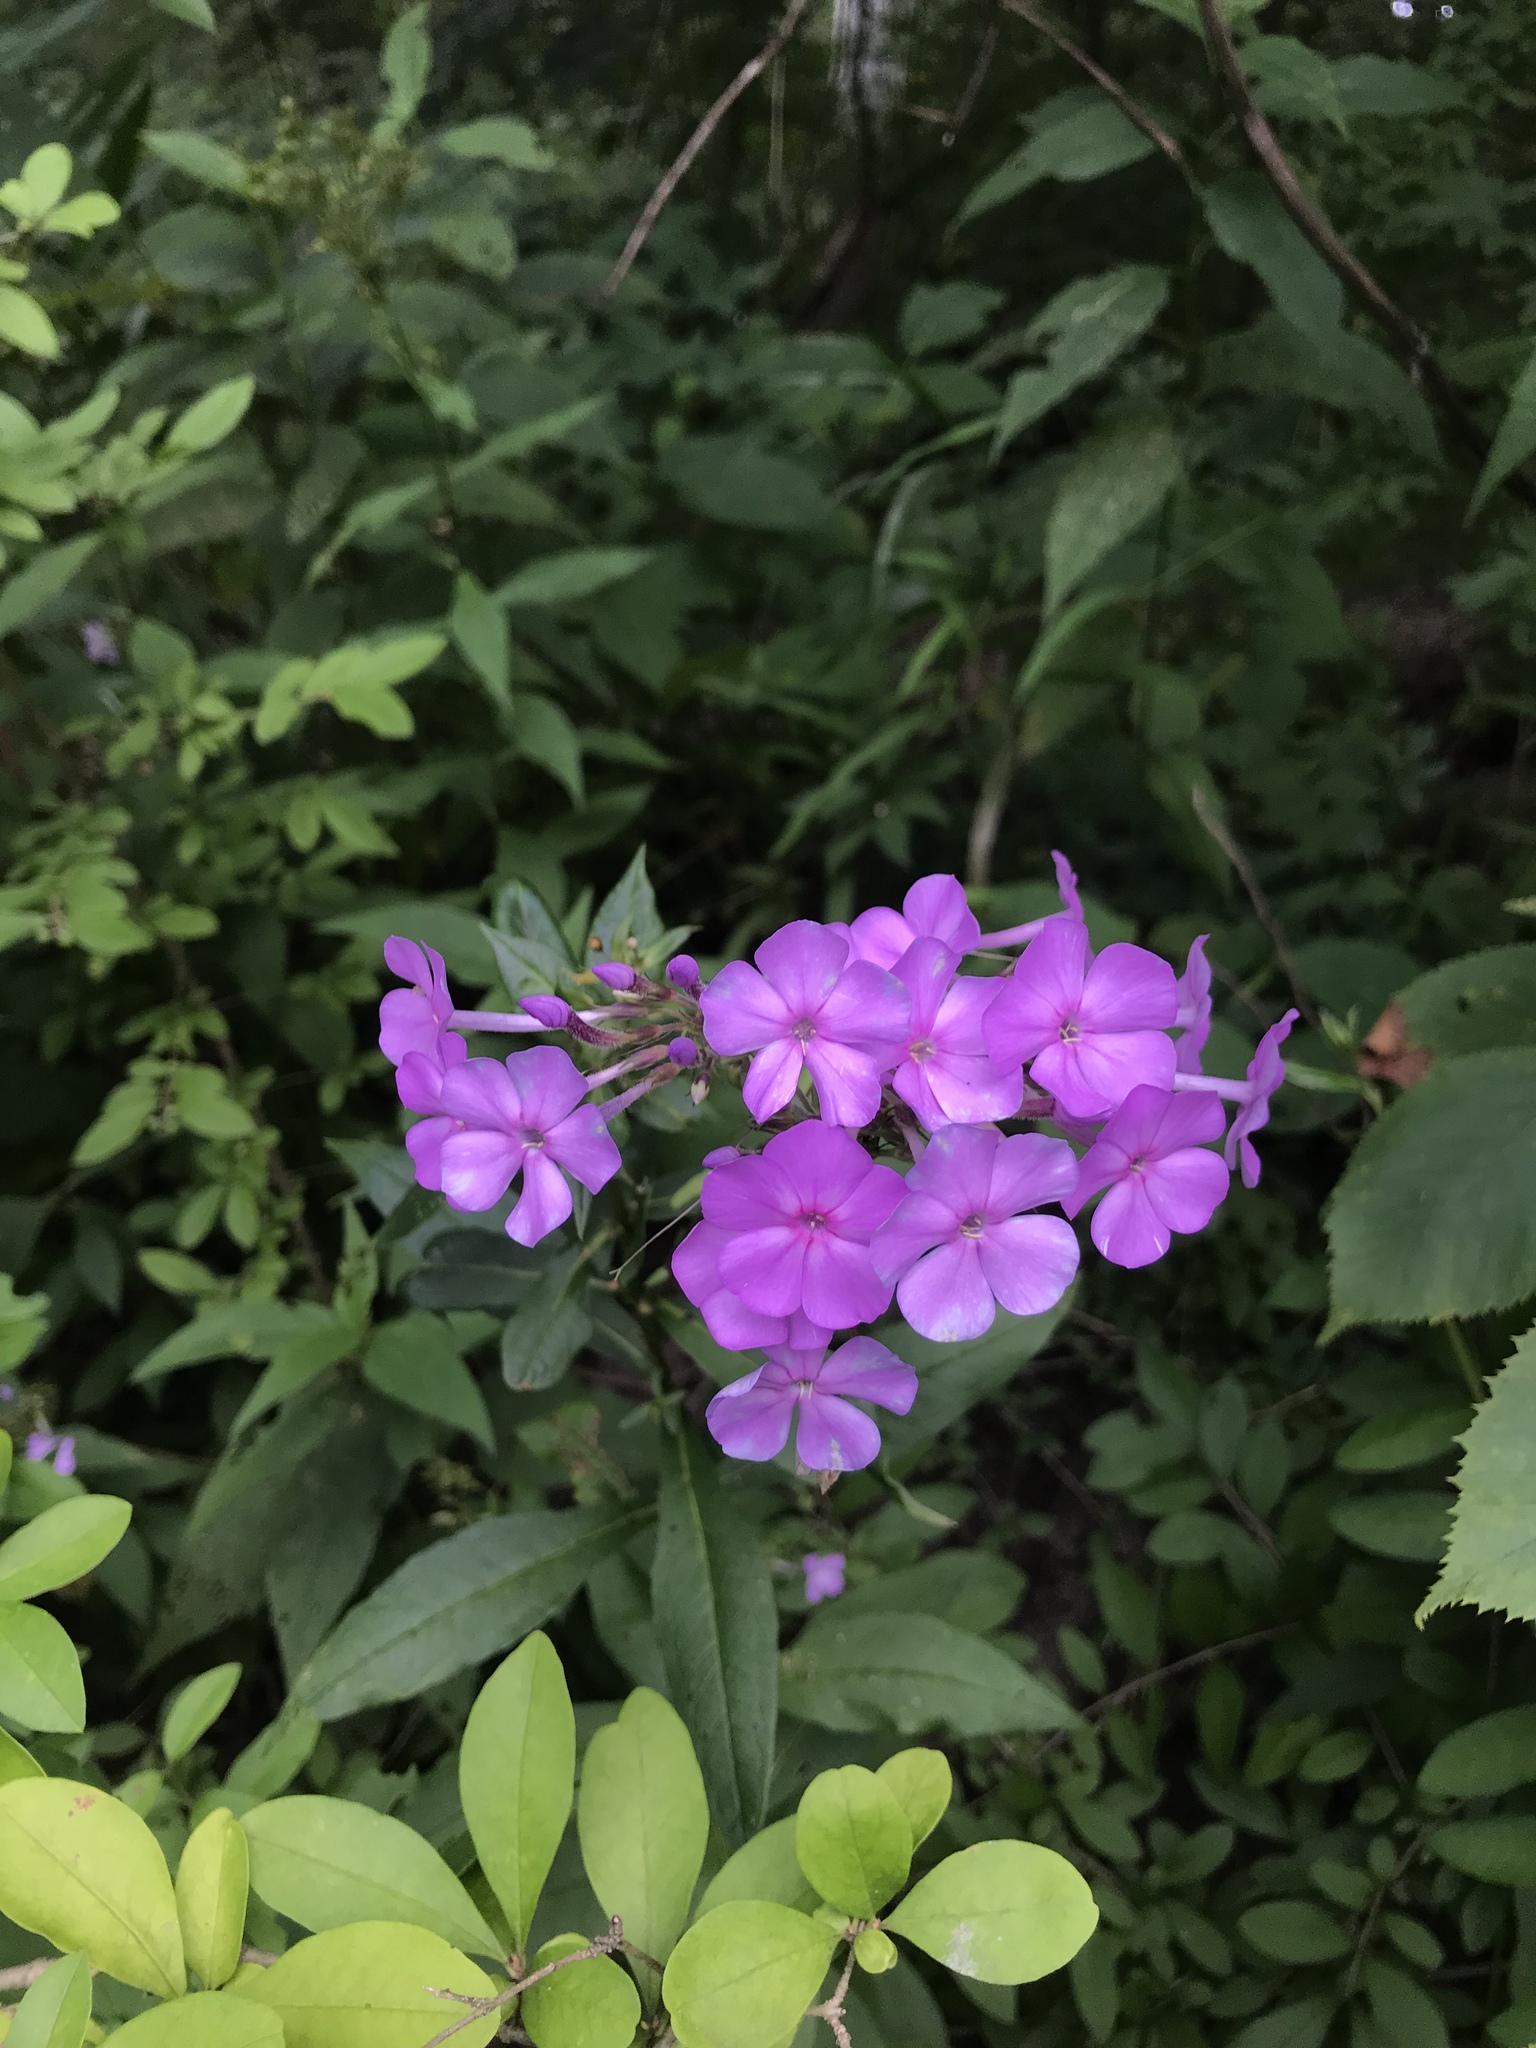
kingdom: Plantae
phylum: Tracheophyta
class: Magnoliopsida
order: Ericales
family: Polemoniaceae
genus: Phlox
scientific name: Phlox paniculata
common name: Fall phlox
